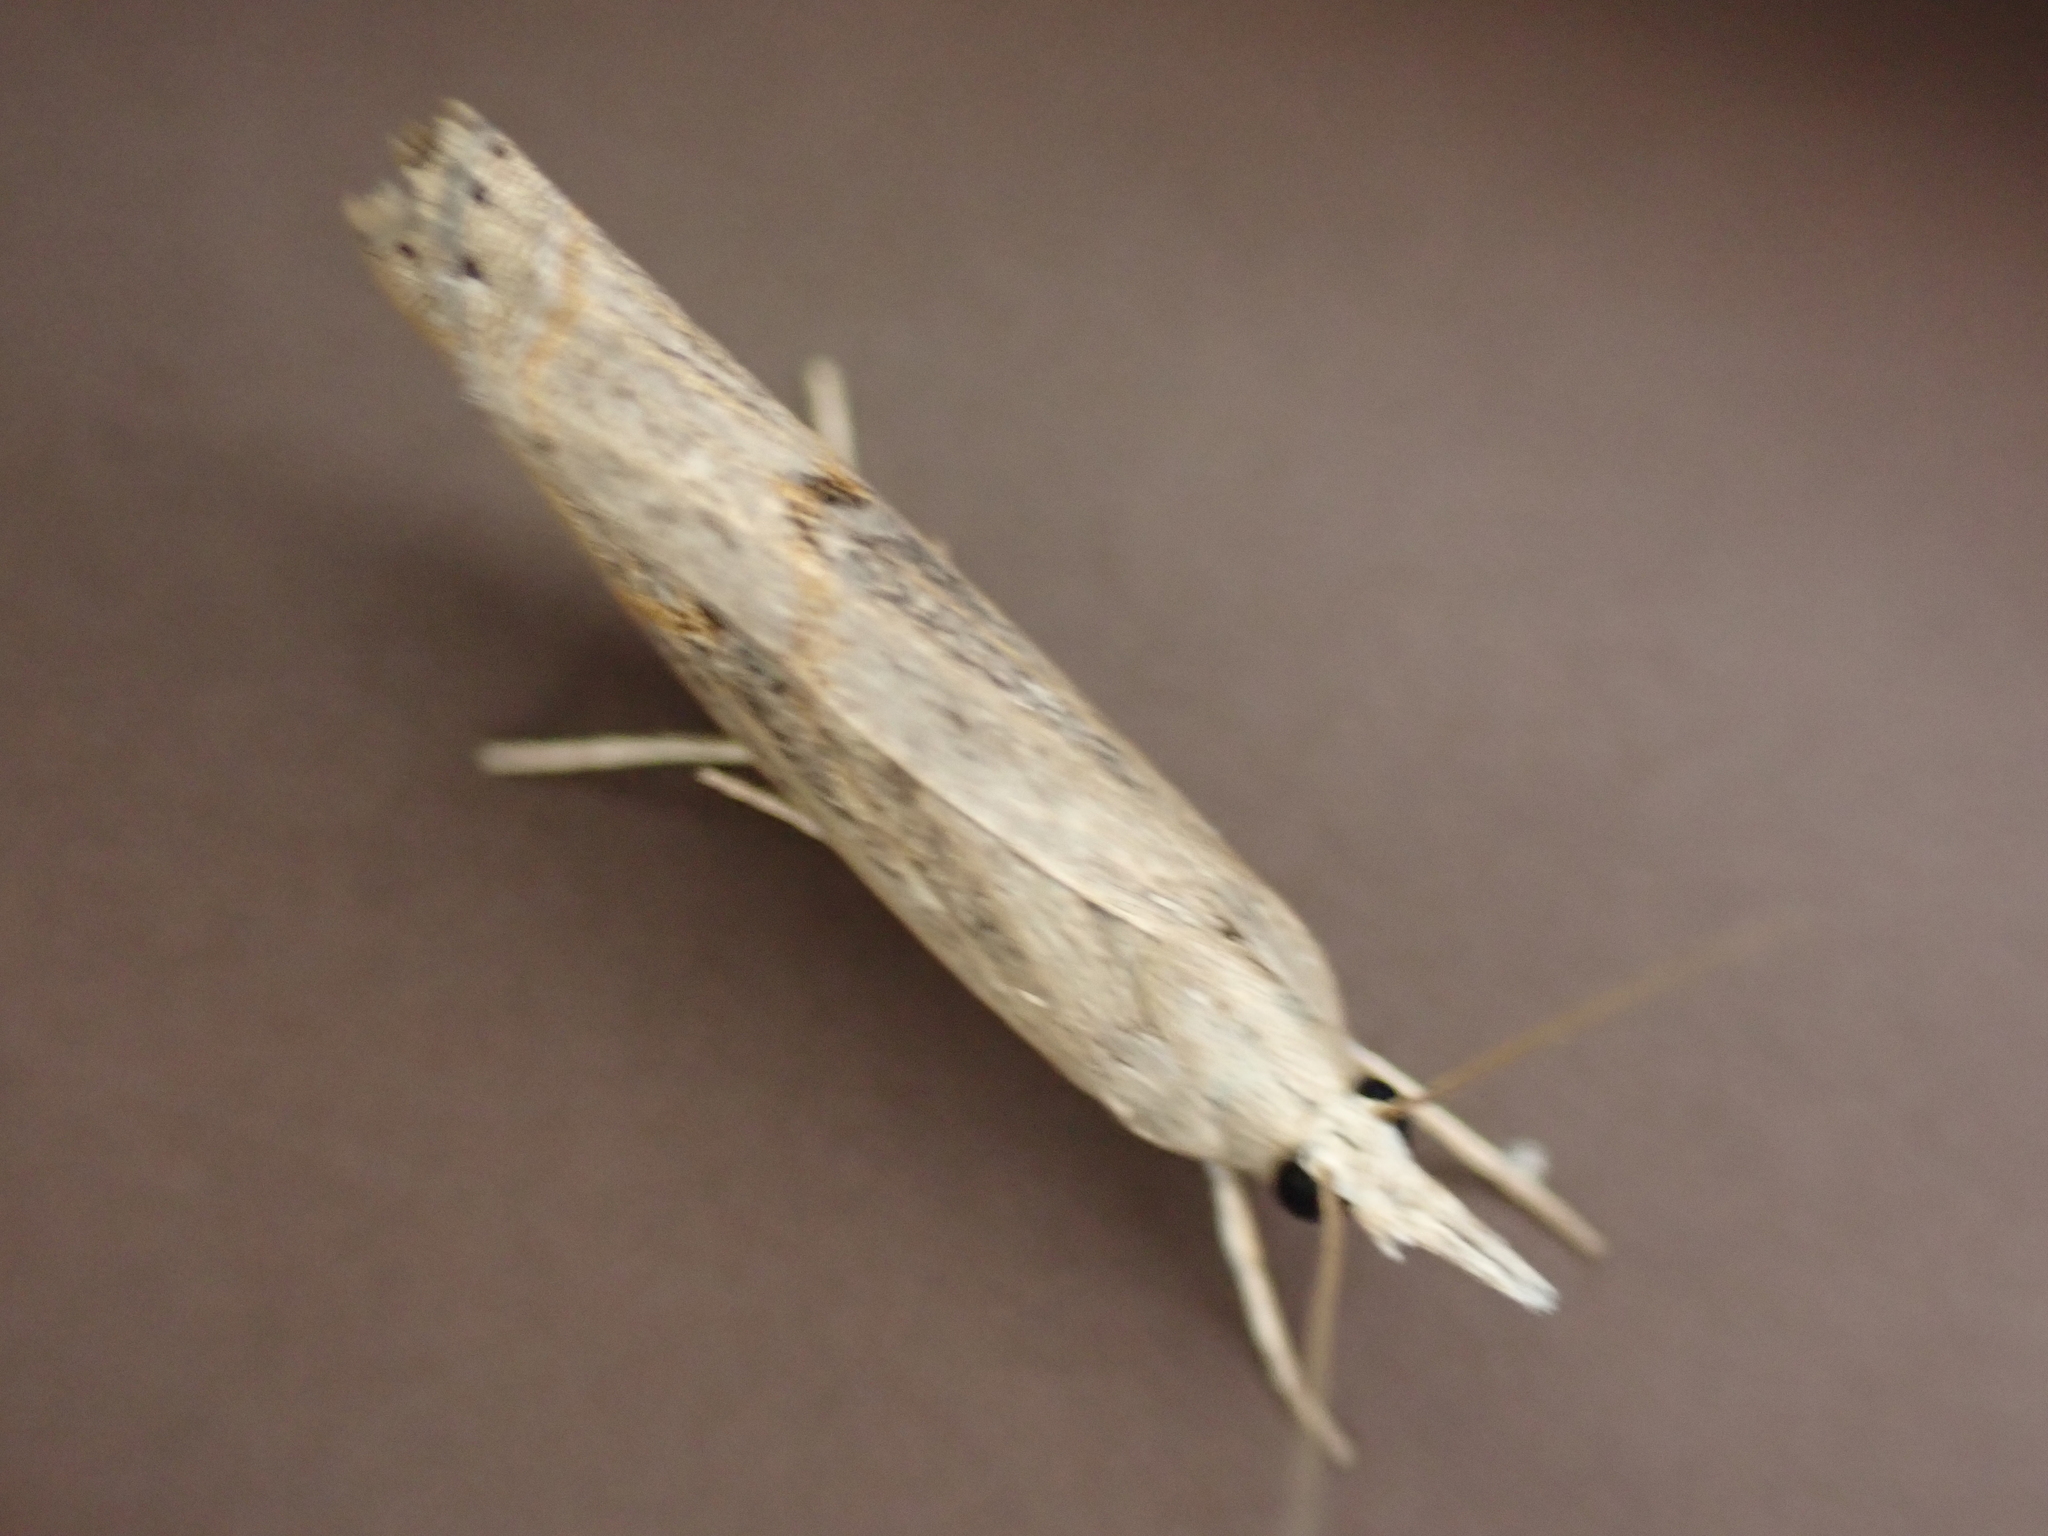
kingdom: Animalia
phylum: Arthropoda
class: Insecta
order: Lepidoptera
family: Crambidae
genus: Parapediasia
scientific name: Parapediasia teterellus
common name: Bluegrass webworm moth
